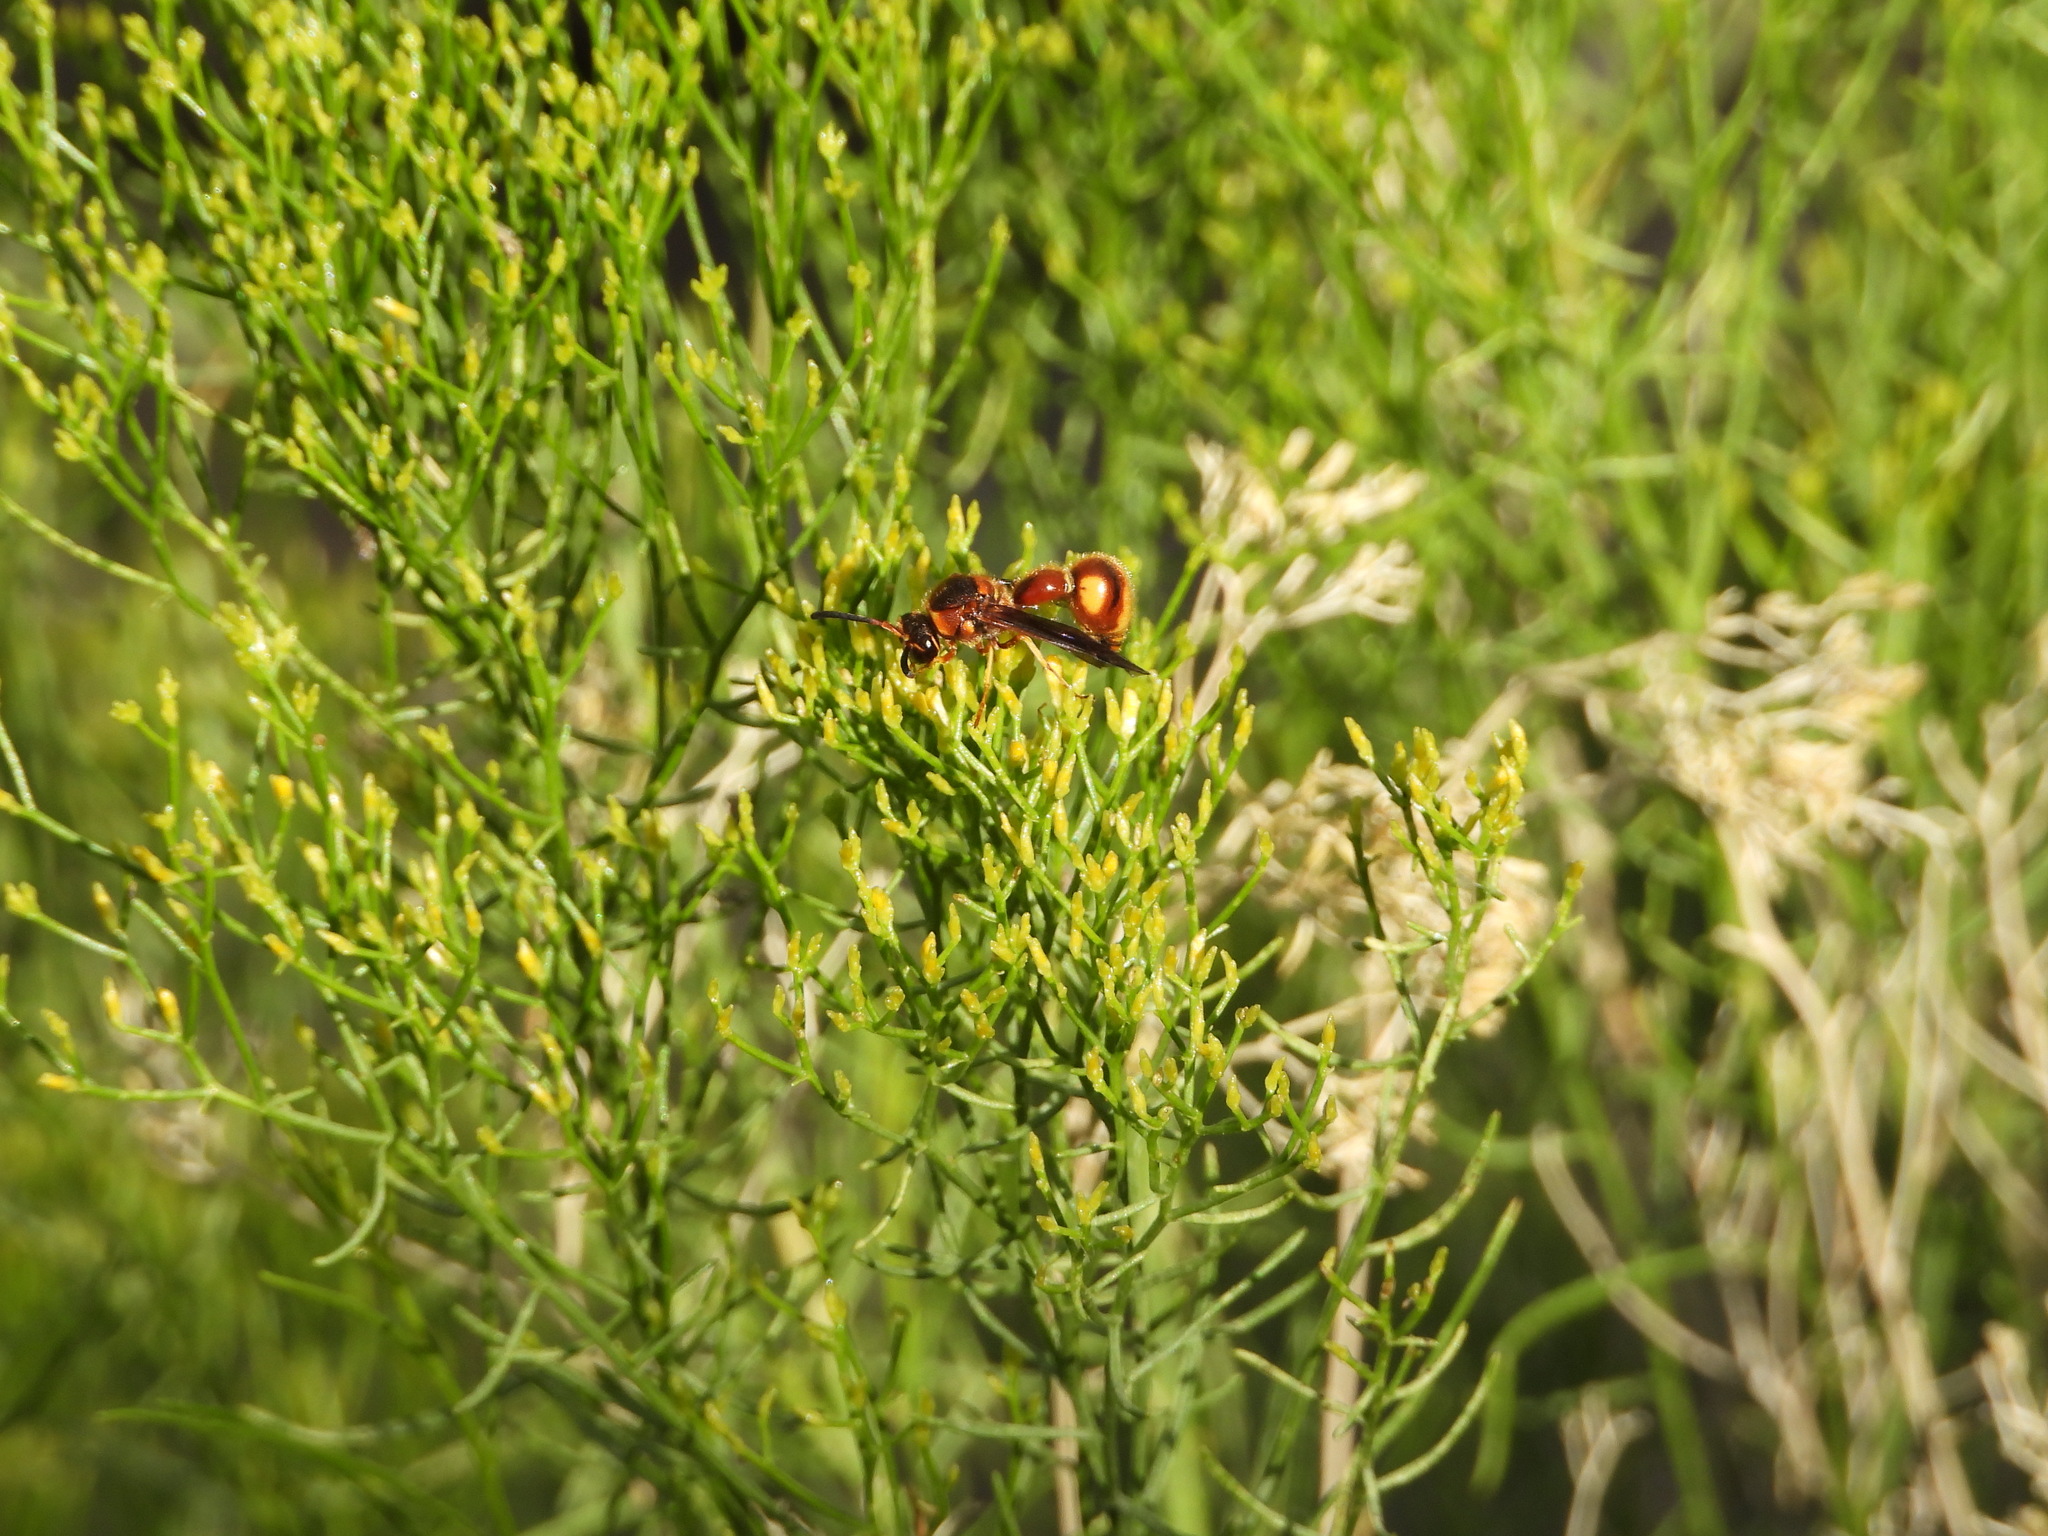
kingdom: Animalia
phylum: Arthropoda
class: Insecta
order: Hymenoptera
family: Vespidae
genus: Eumenes
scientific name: Eumenes bollii
